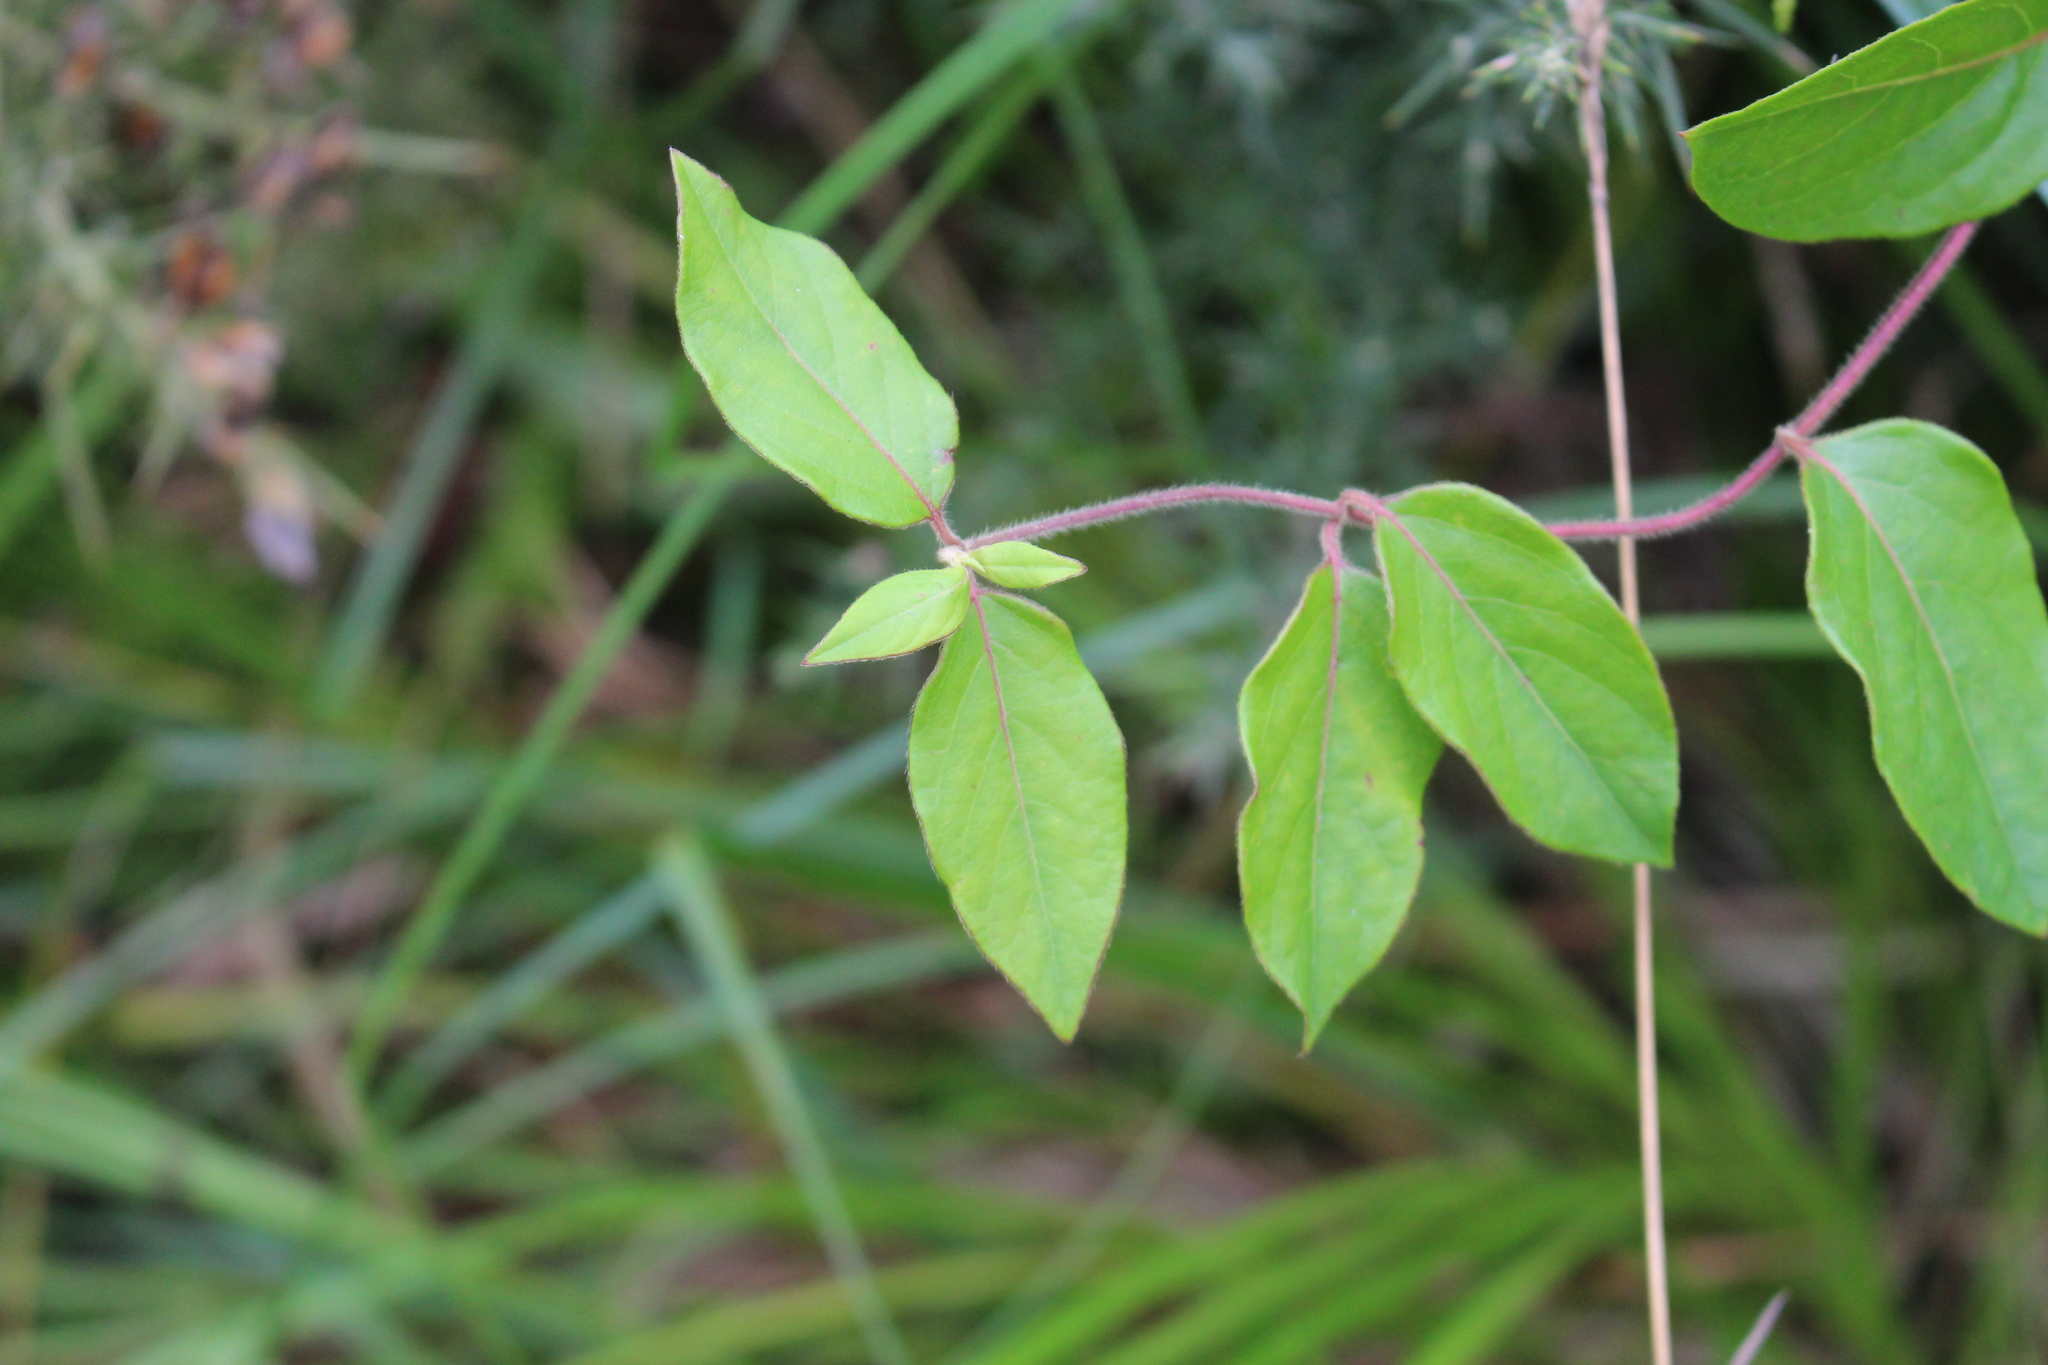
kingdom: Plantae
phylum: Tracheophyta
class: Magnoliopsida
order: Dipsacales
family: Caprifoliaceae
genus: Lonicera
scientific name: Lonicera japonica
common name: Japanese honeysuckle
